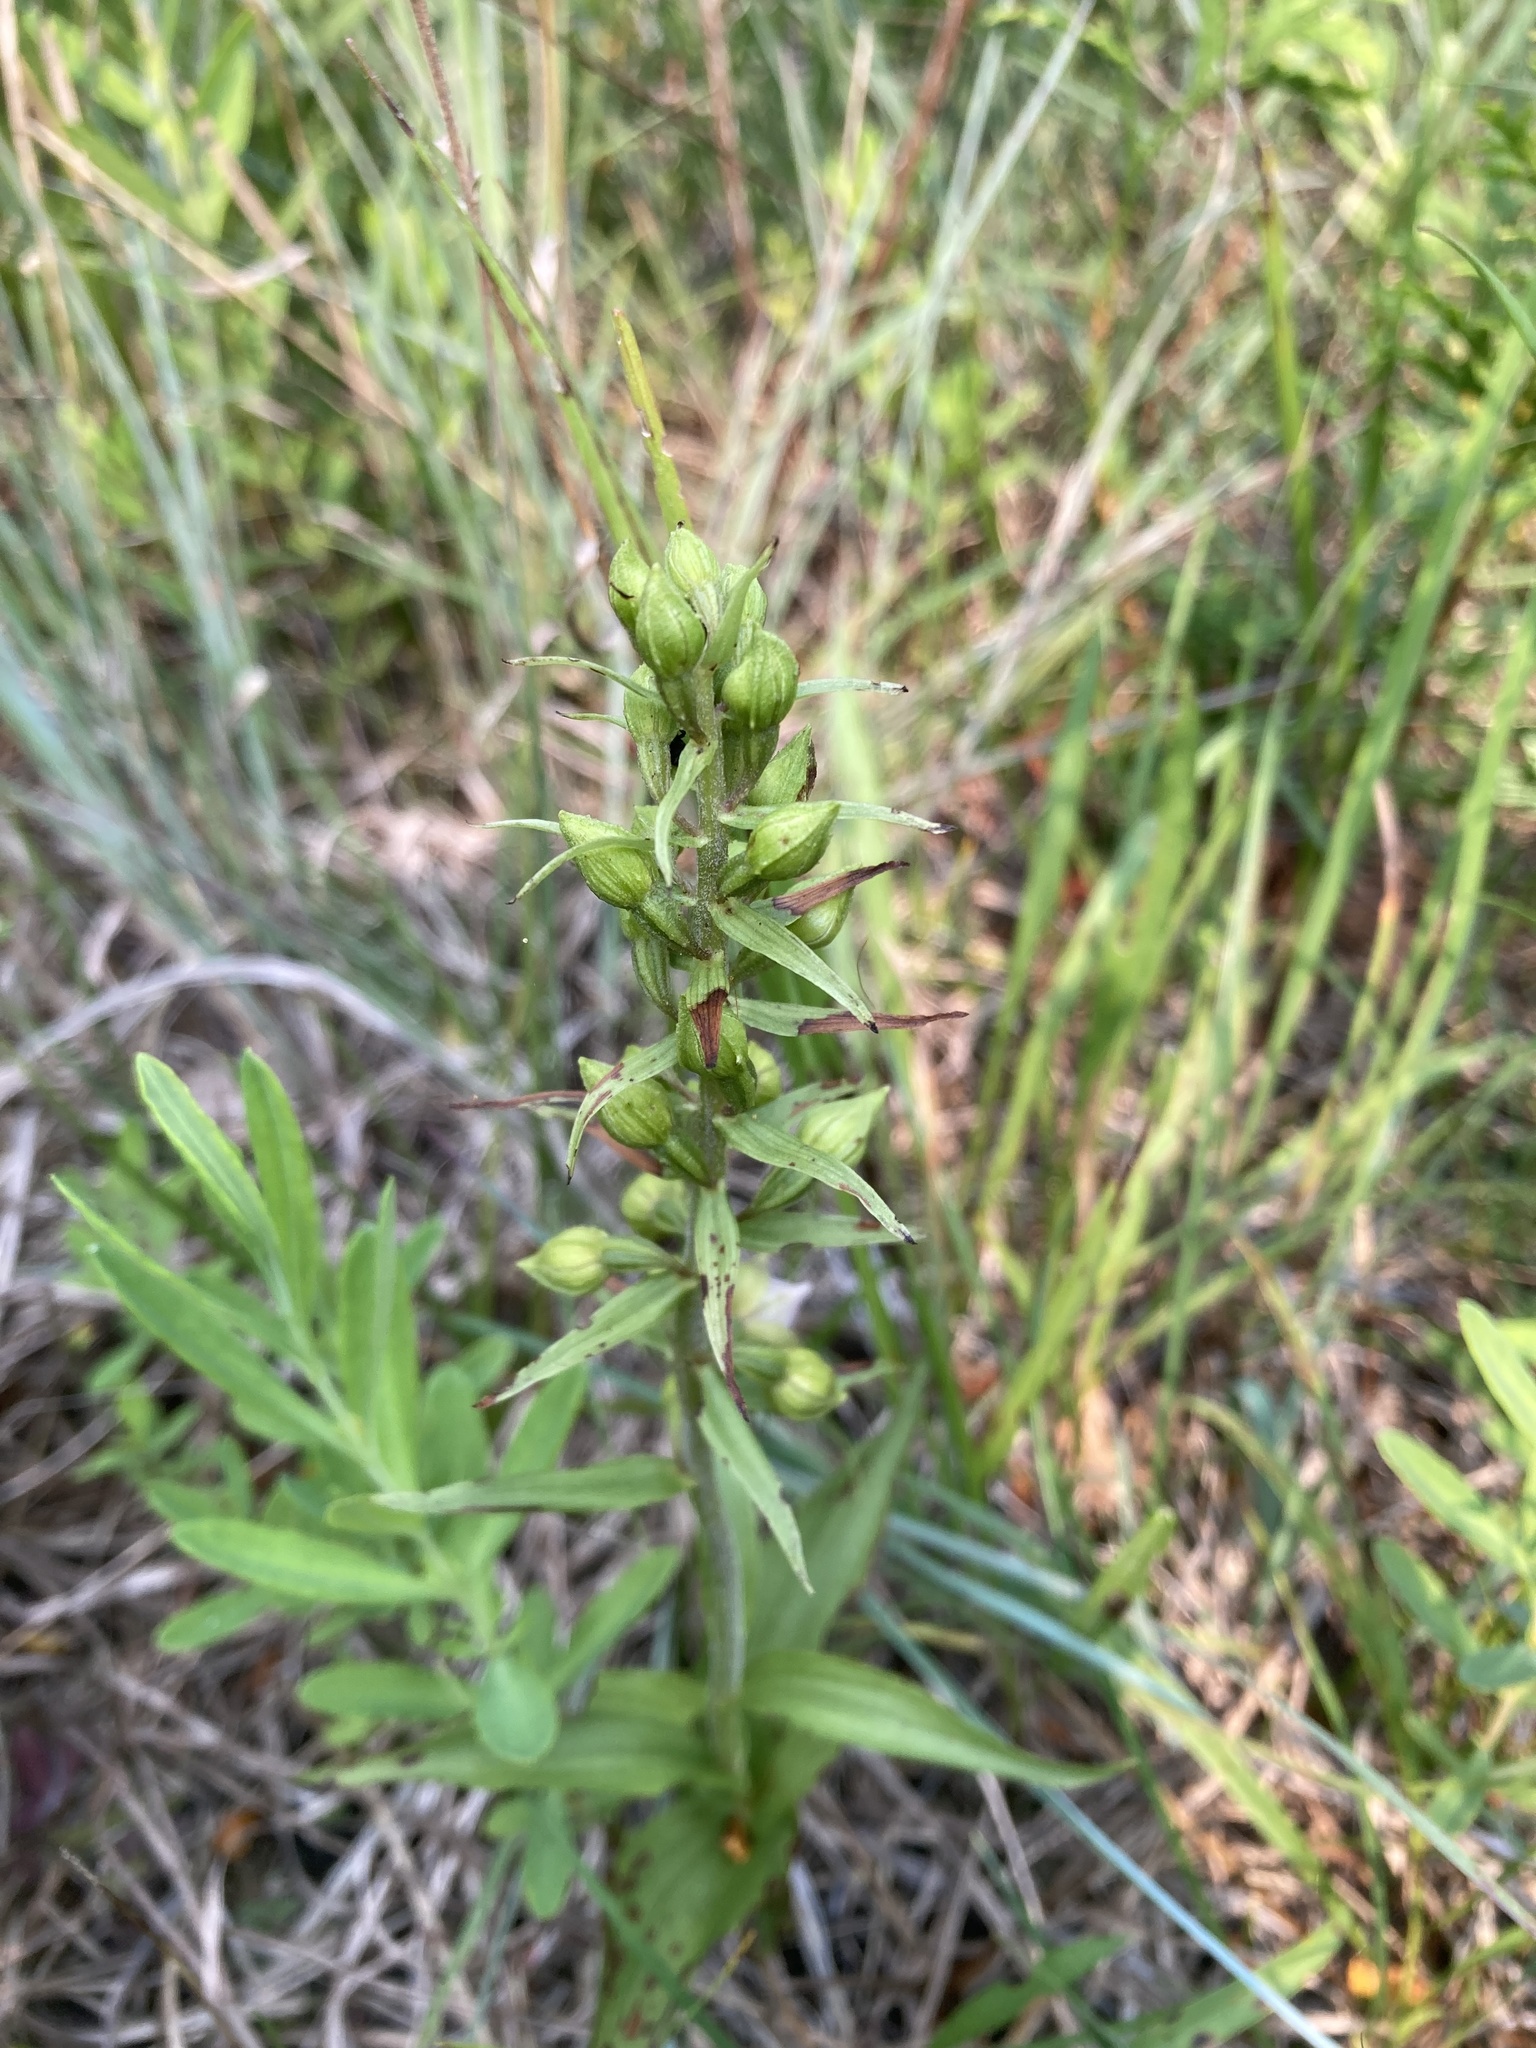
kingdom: Plantae
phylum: Tracheophyta
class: Liliopsida
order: Asparagales
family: Orchidaceae
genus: Epipactis
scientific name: Epipactis helleborine
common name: Broad-leaved helleborine
